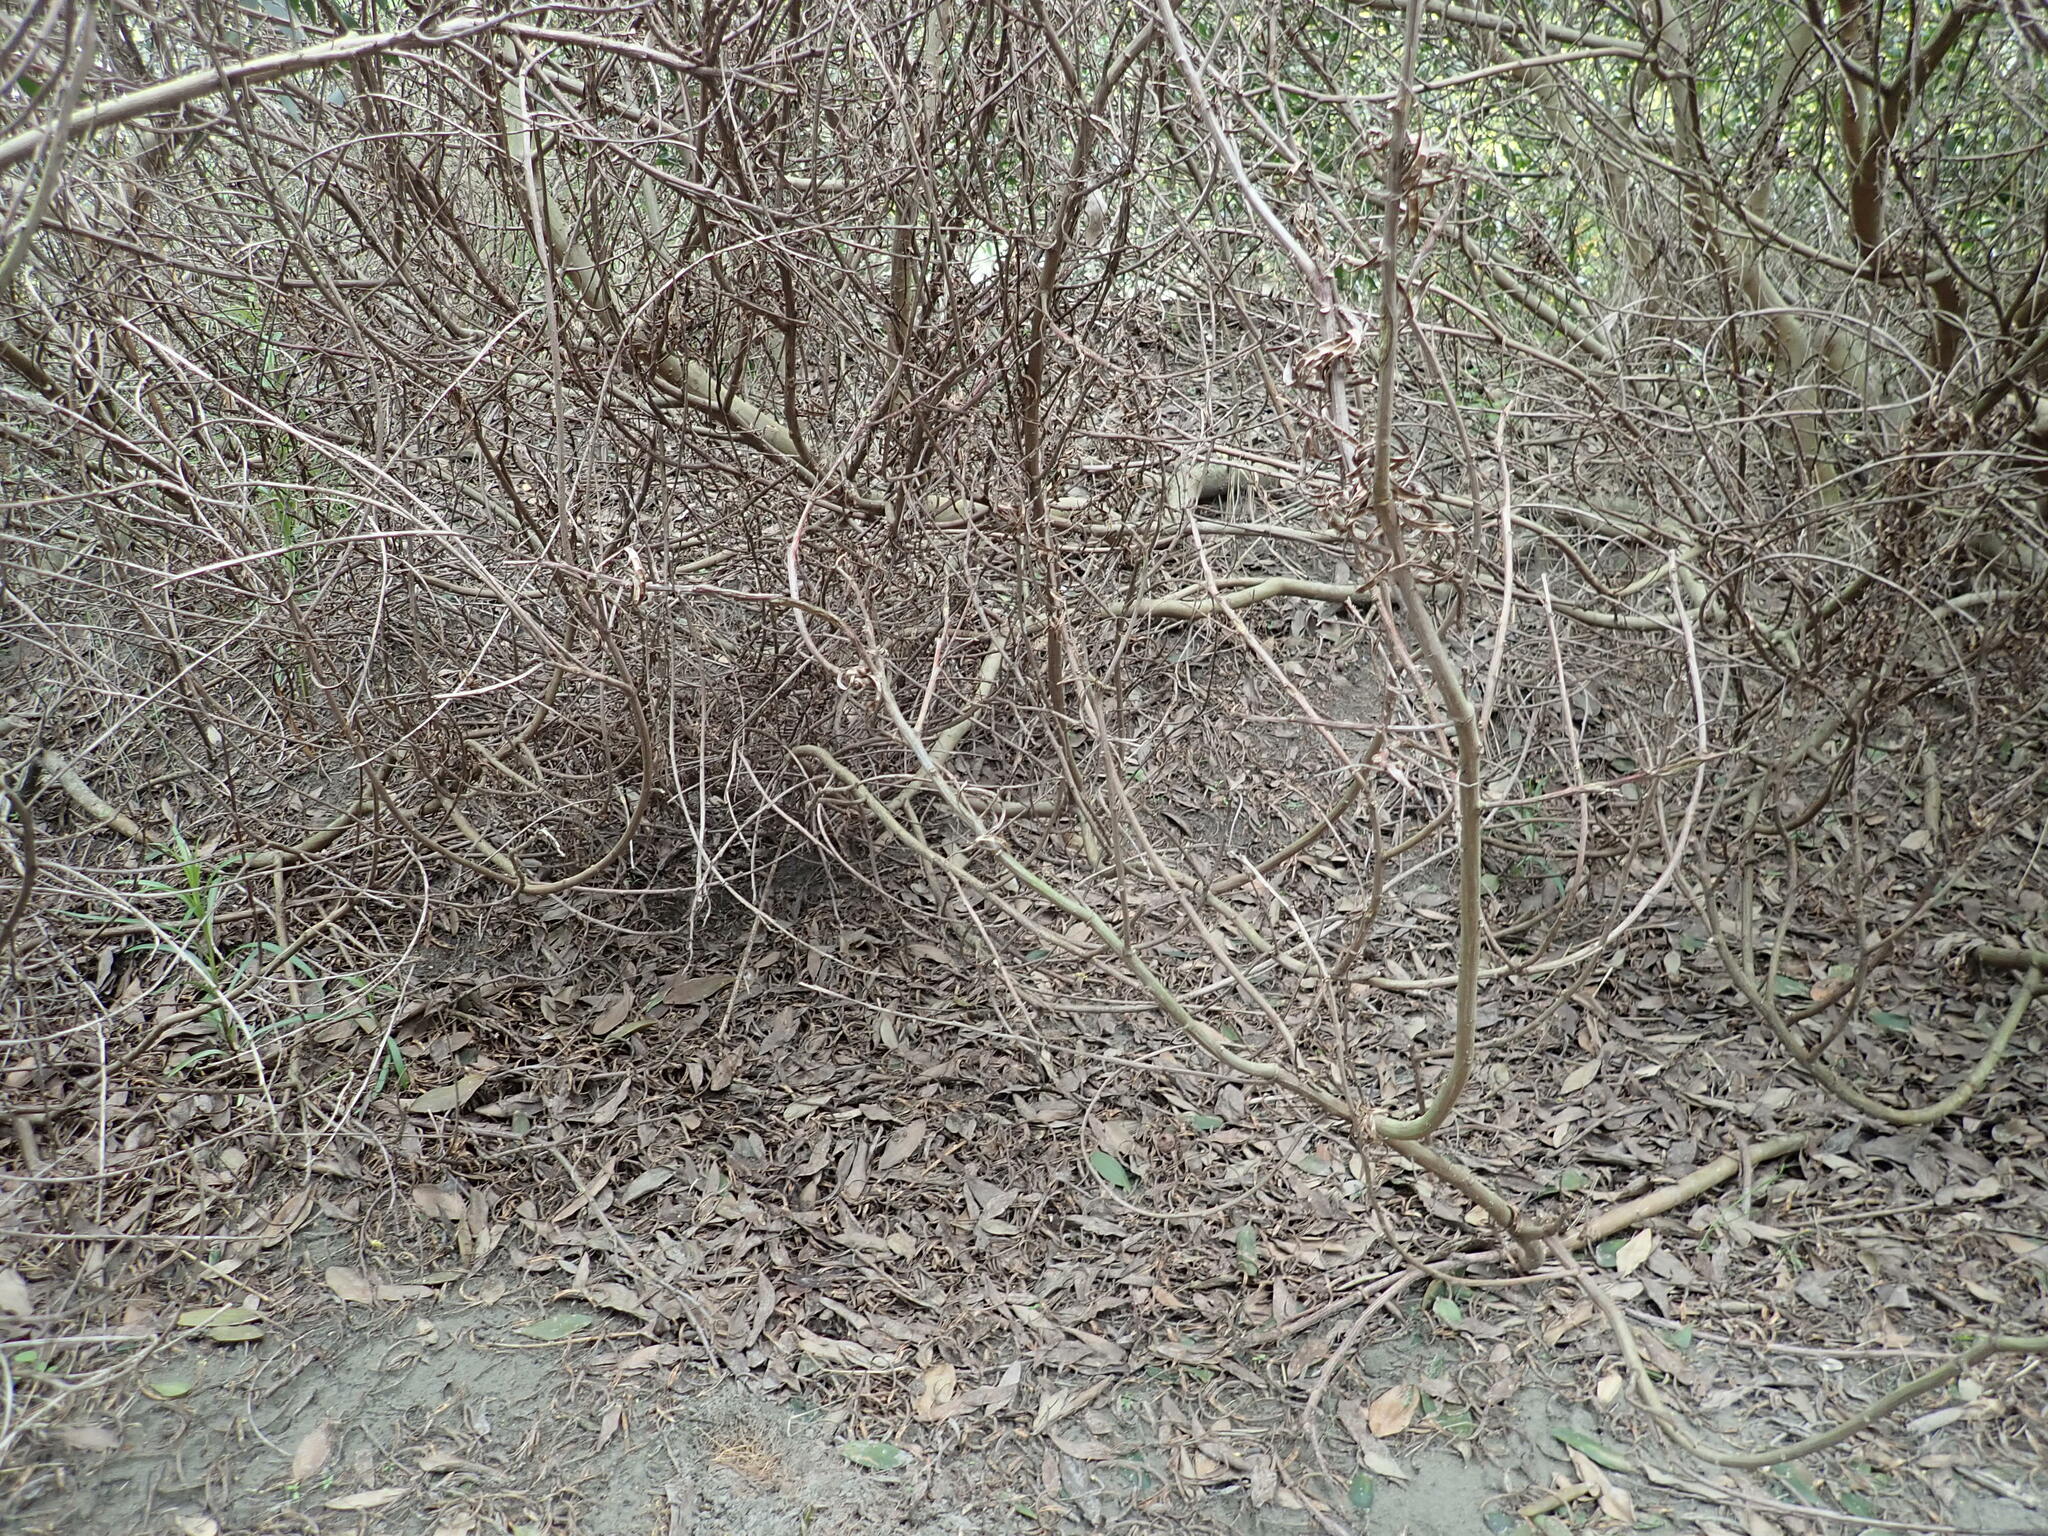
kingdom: Plantae
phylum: Tracheophyta
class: Magnoliopsida
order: Fabales
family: Fabaceae
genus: Acacia
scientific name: Acacia longifolia
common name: Sydney golden wattle
